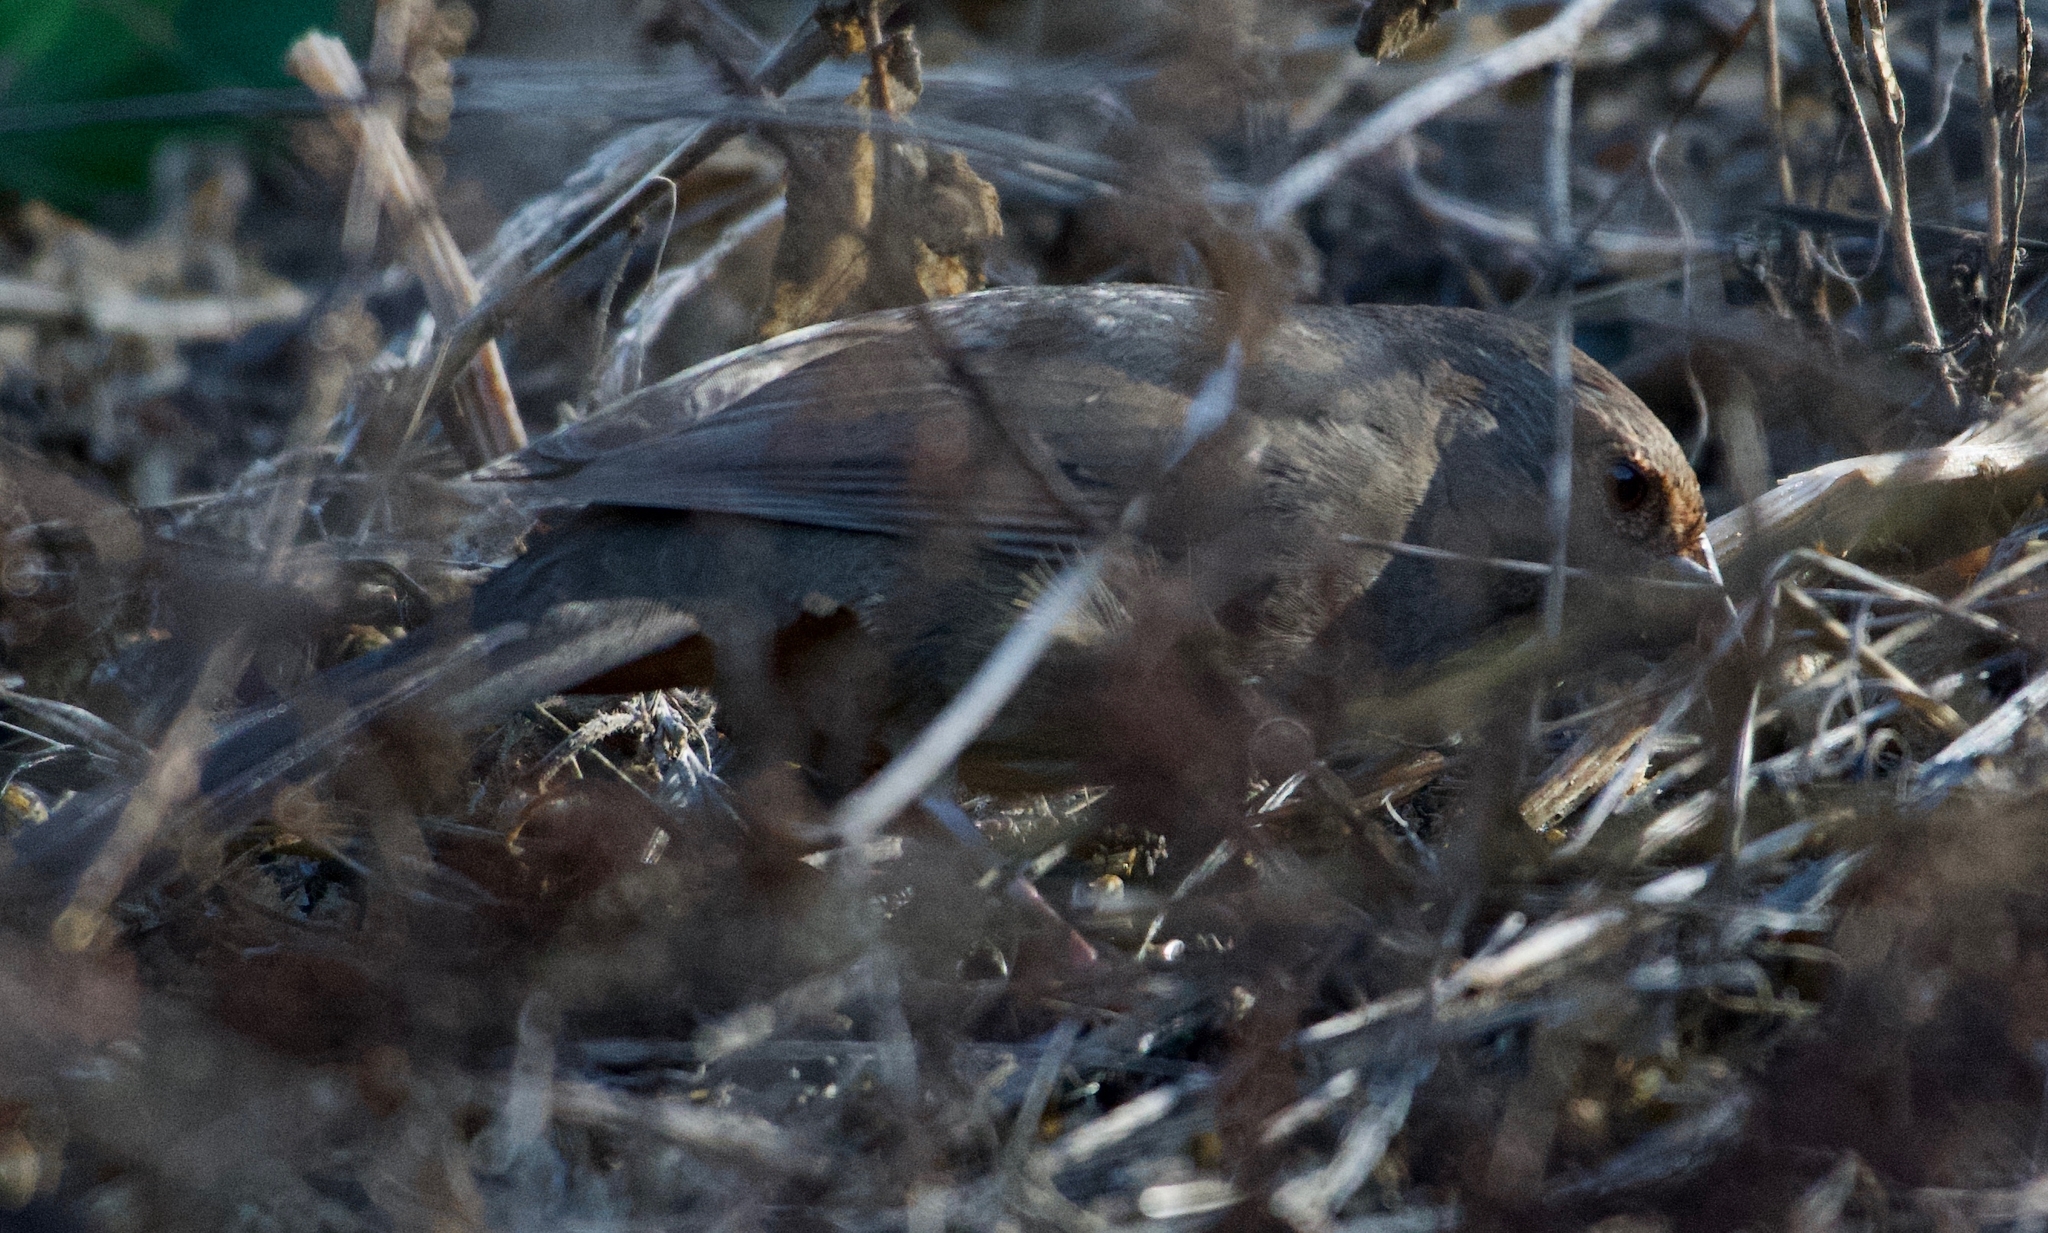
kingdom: Animalia
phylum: Chordata
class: Aves
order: Passeriformes
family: Passerellidae
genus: Melozone
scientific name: Melozone crissalis
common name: California towhee
